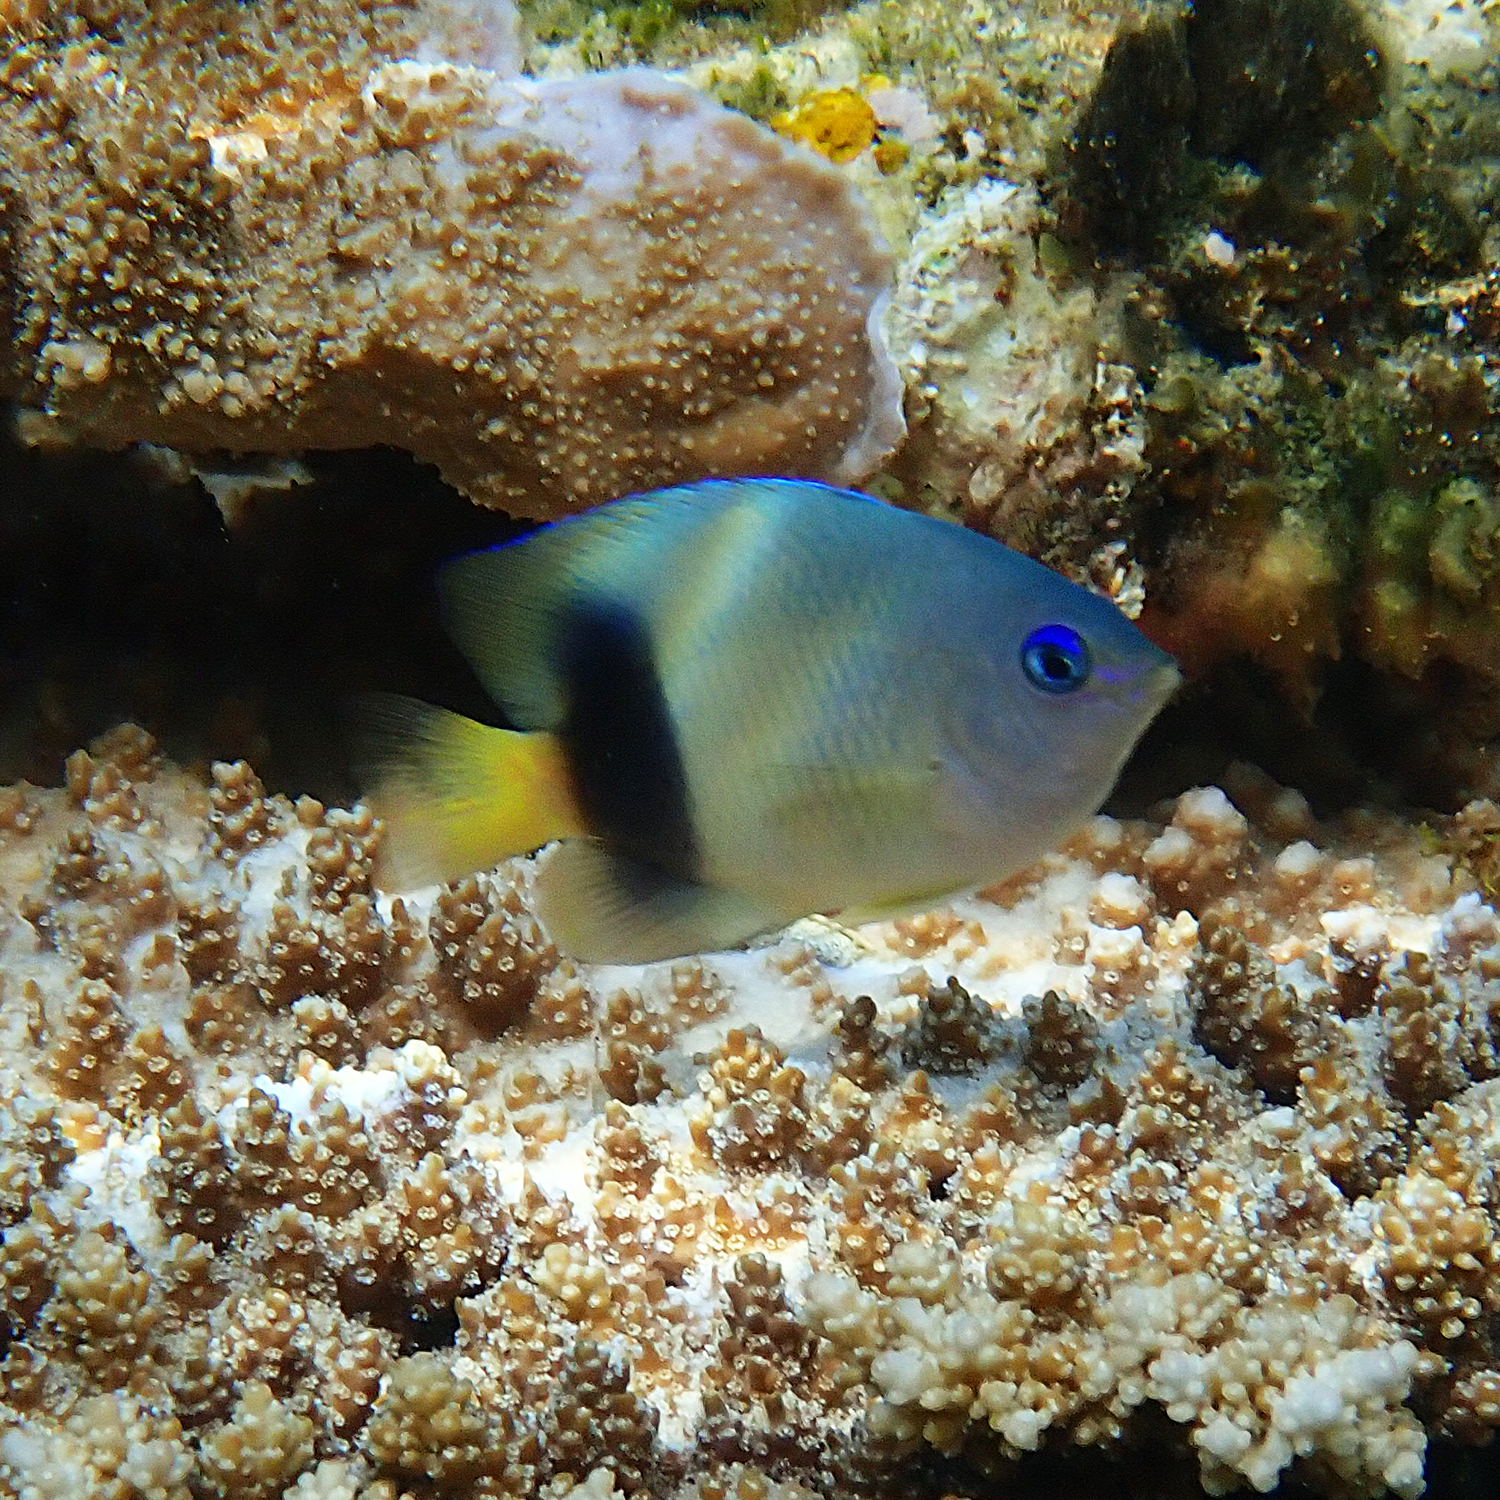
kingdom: Animalia
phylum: Chordata
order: Perciformes
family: Pomacentridae
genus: Plectroglyphidodon
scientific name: Plectroglyphidodon johnstonianus
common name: Johnston damsel
